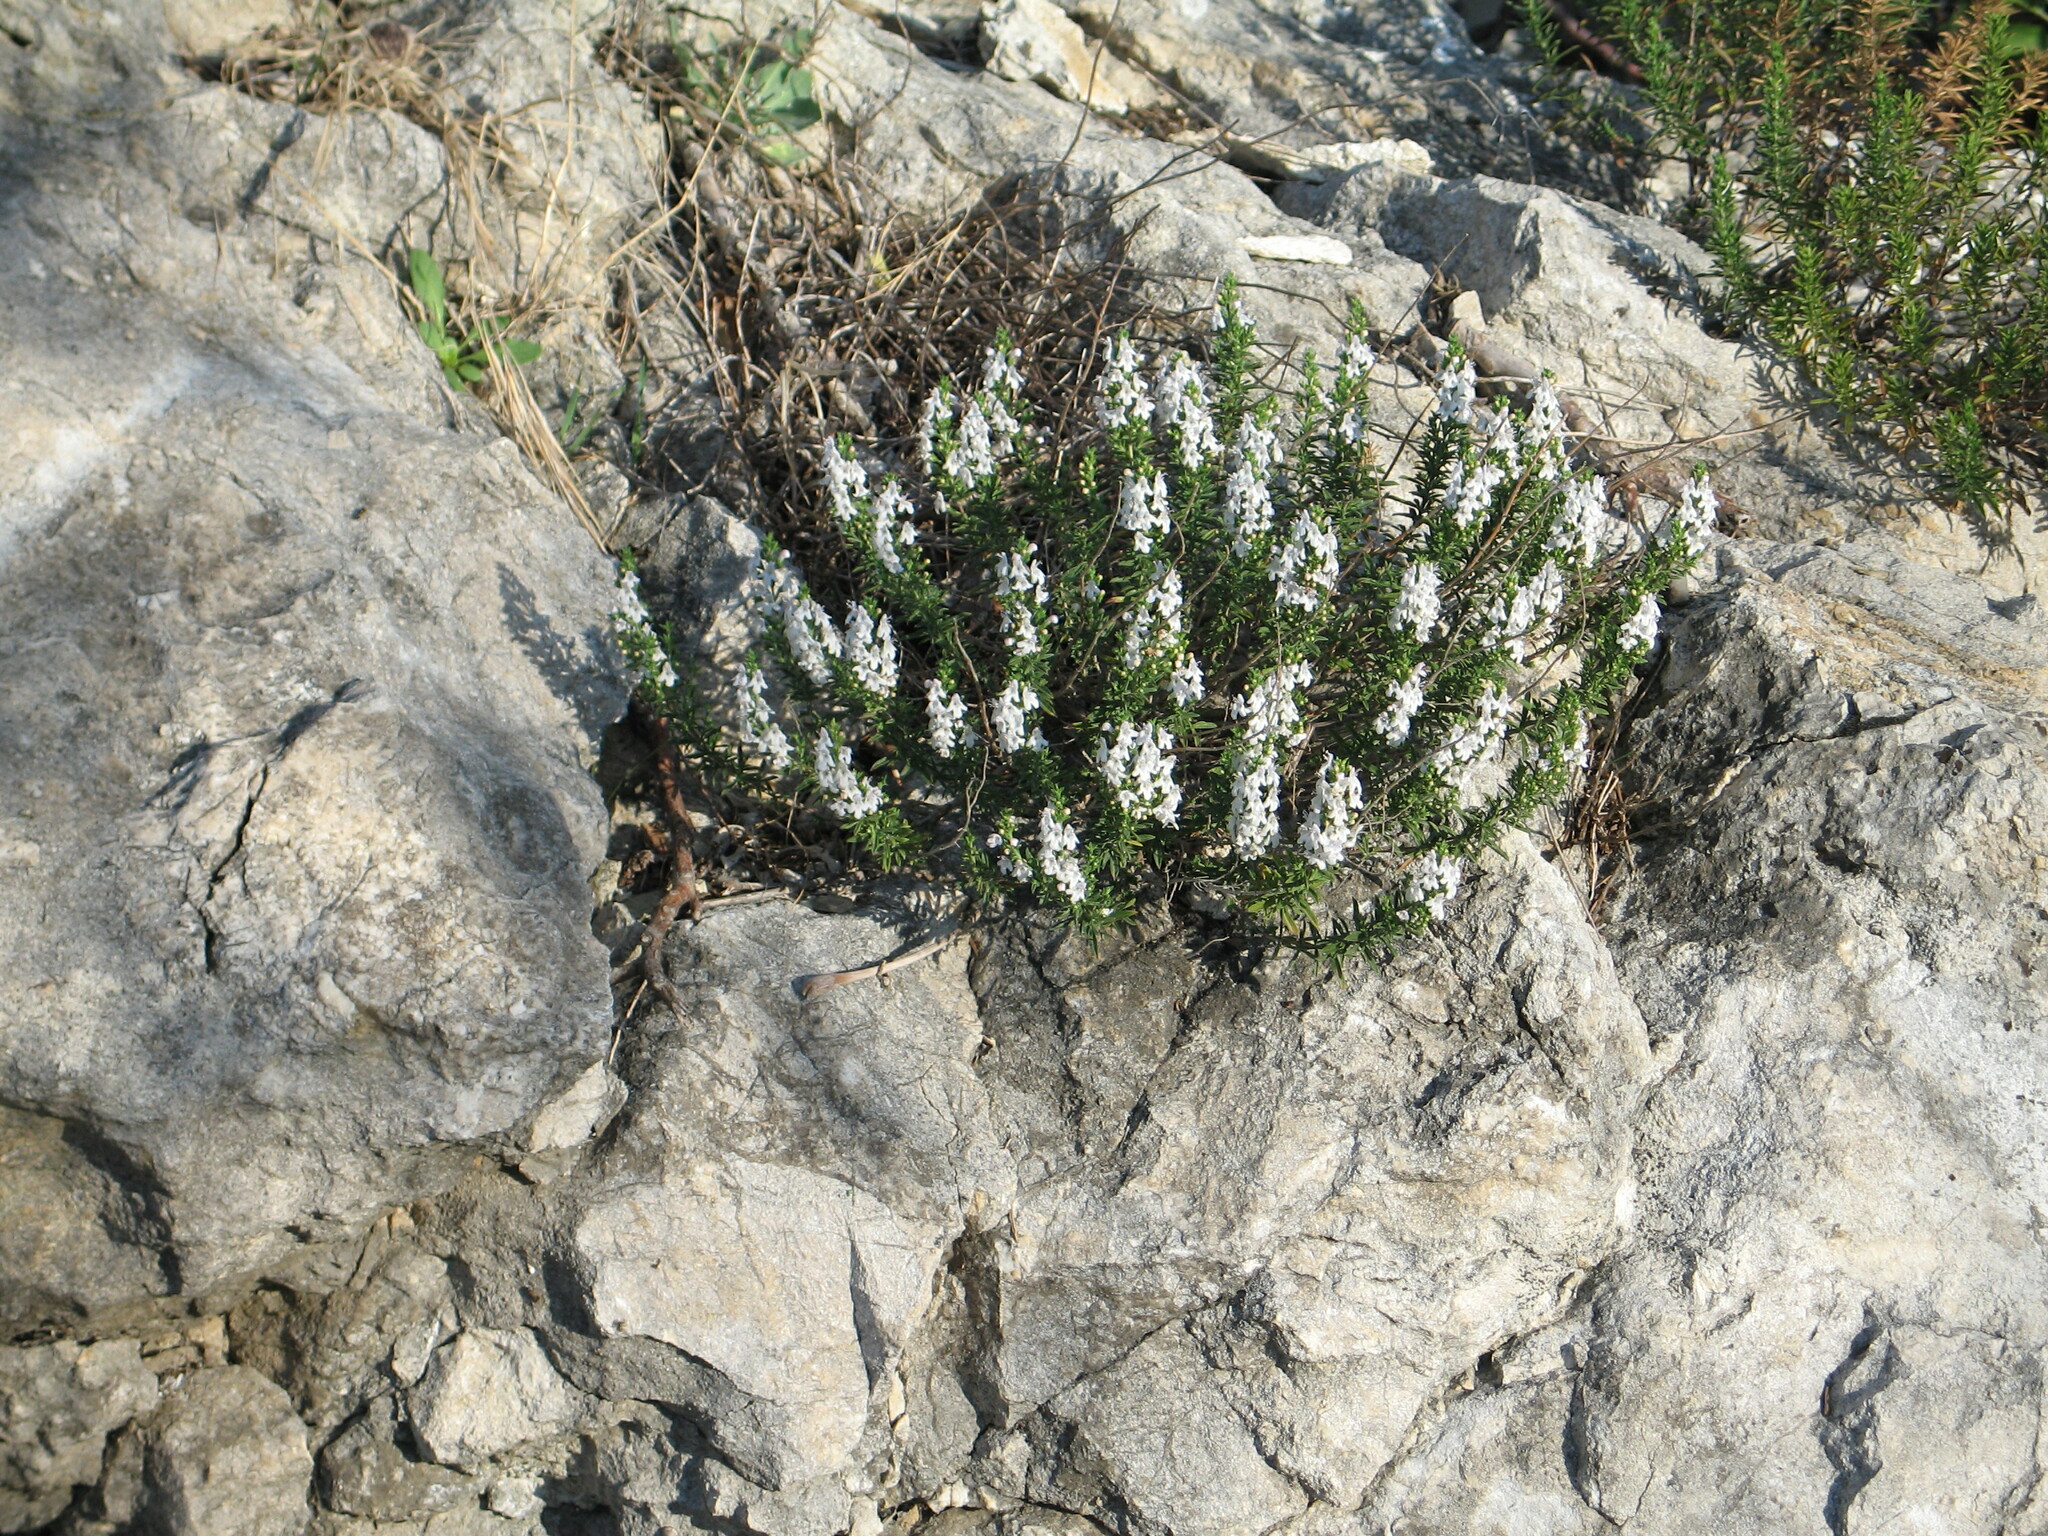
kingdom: Plantae
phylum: Tracheophyta
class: Magnoliopsida
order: Lamiales
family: Lamiaceae
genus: Satureja
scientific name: Satureja montana
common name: Winter savory
